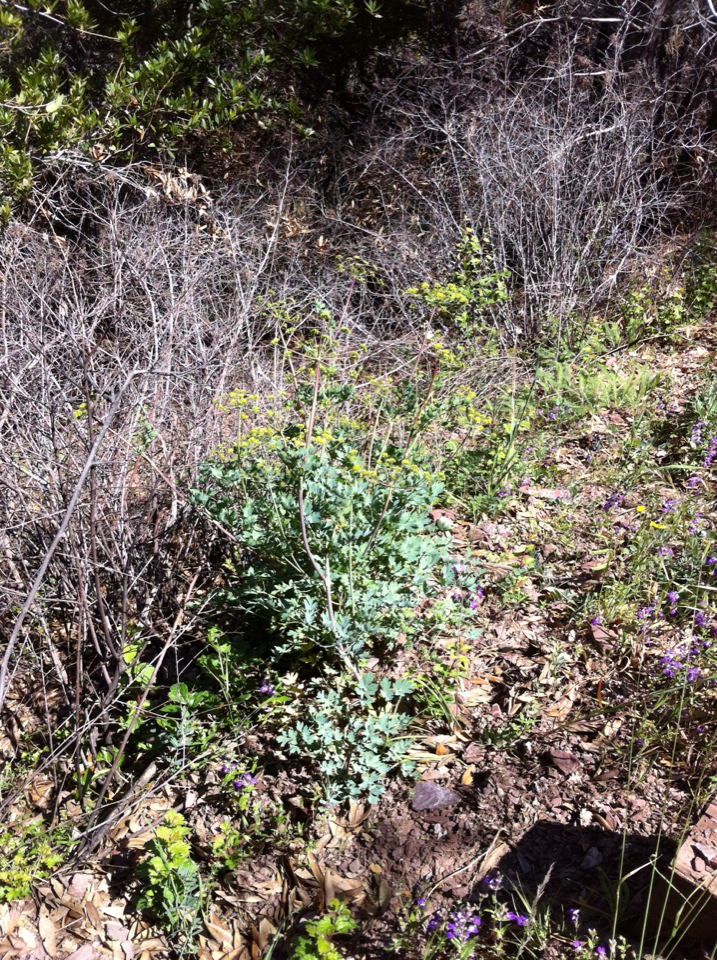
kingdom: Plantae
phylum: Tracheophyta
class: Magnoliopsida
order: Apiales
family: Apiaceae
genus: Lomatium
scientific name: Lomatium californicum
